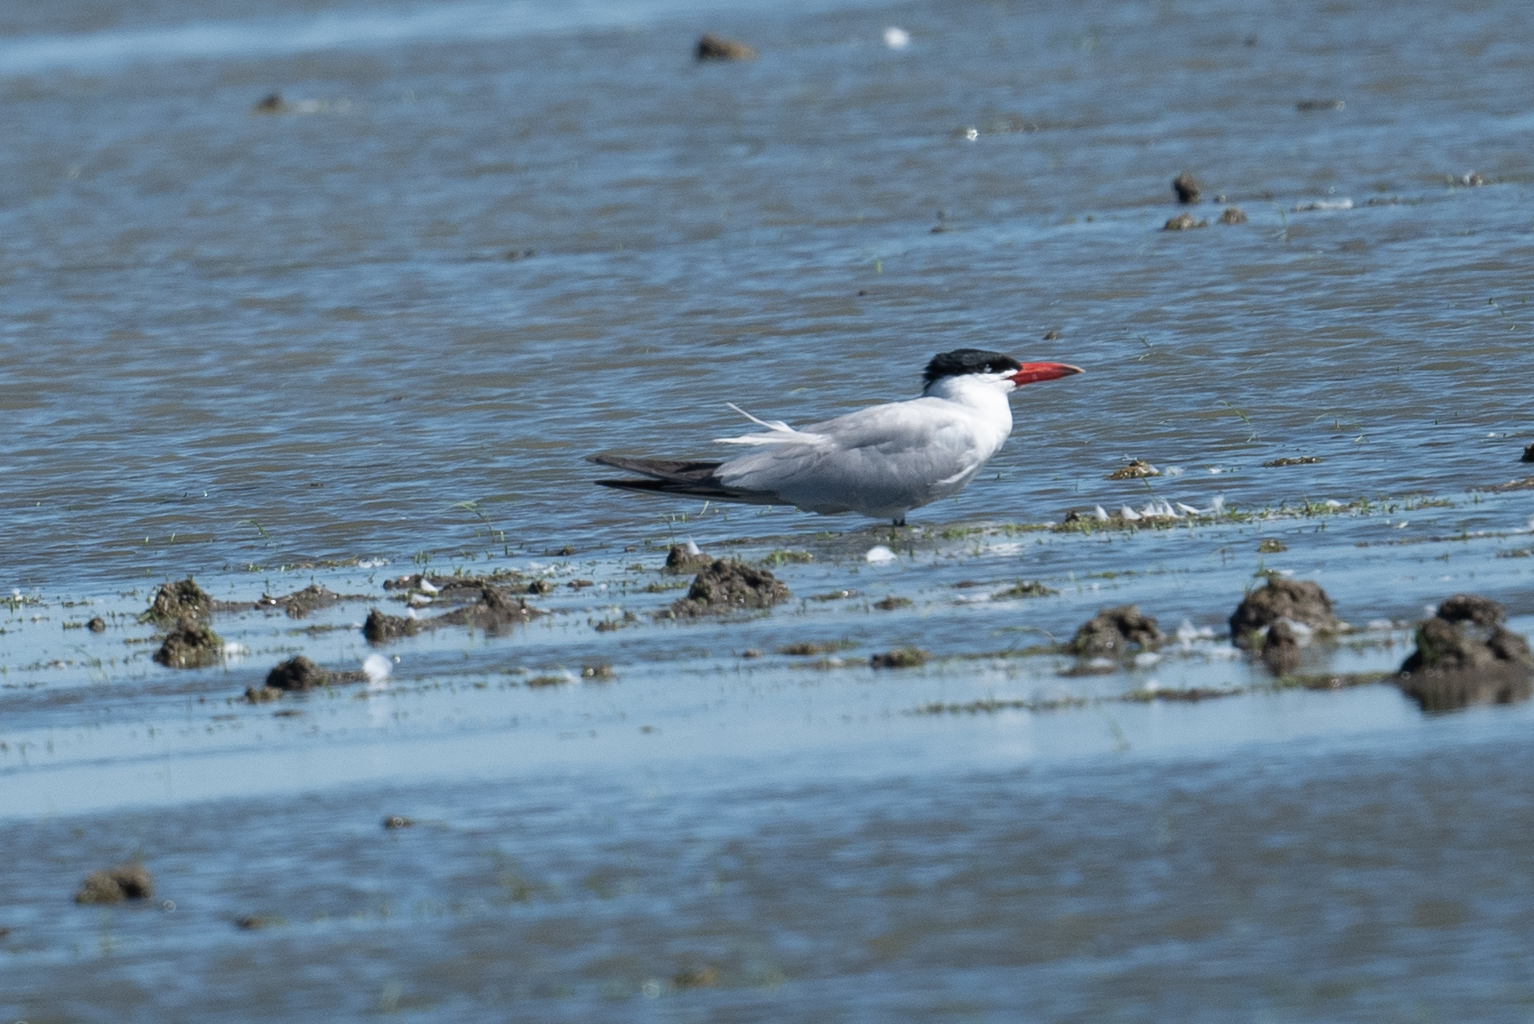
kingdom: Animalia
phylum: Chordata
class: Aves
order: Charadriiformes
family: Laridae
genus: Hydroprogne
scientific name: Hydroprogne caspia
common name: Caspian tern
